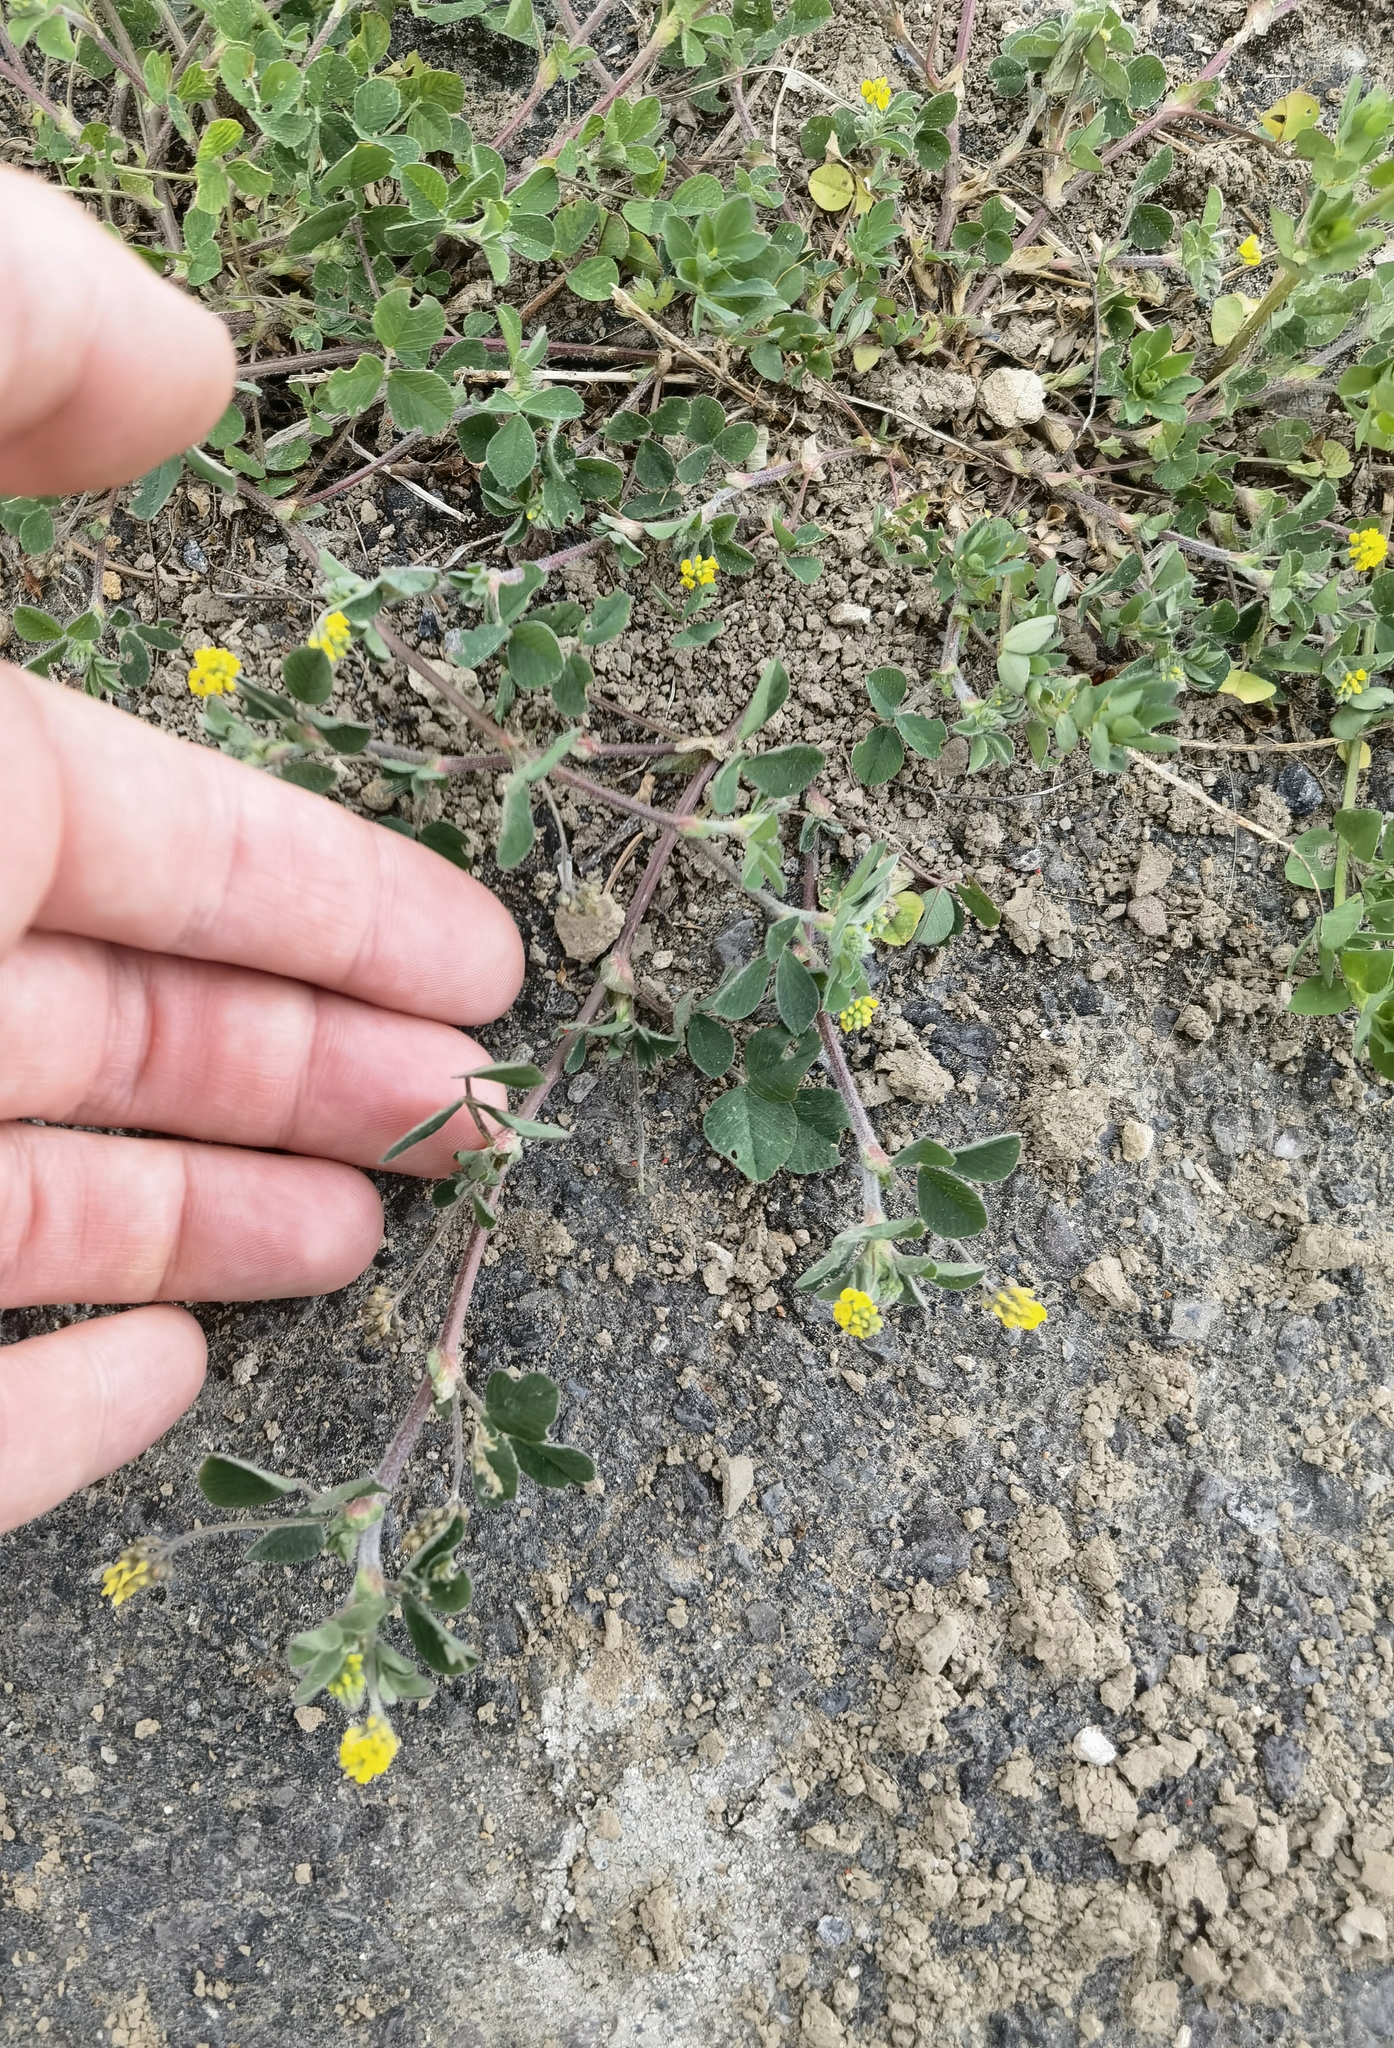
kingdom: Plantae
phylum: Tracheophyta
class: Magnoliopsida
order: Fabales
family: Fabaceae
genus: Medicago
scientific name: Medicago lupulina
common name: Black medick
